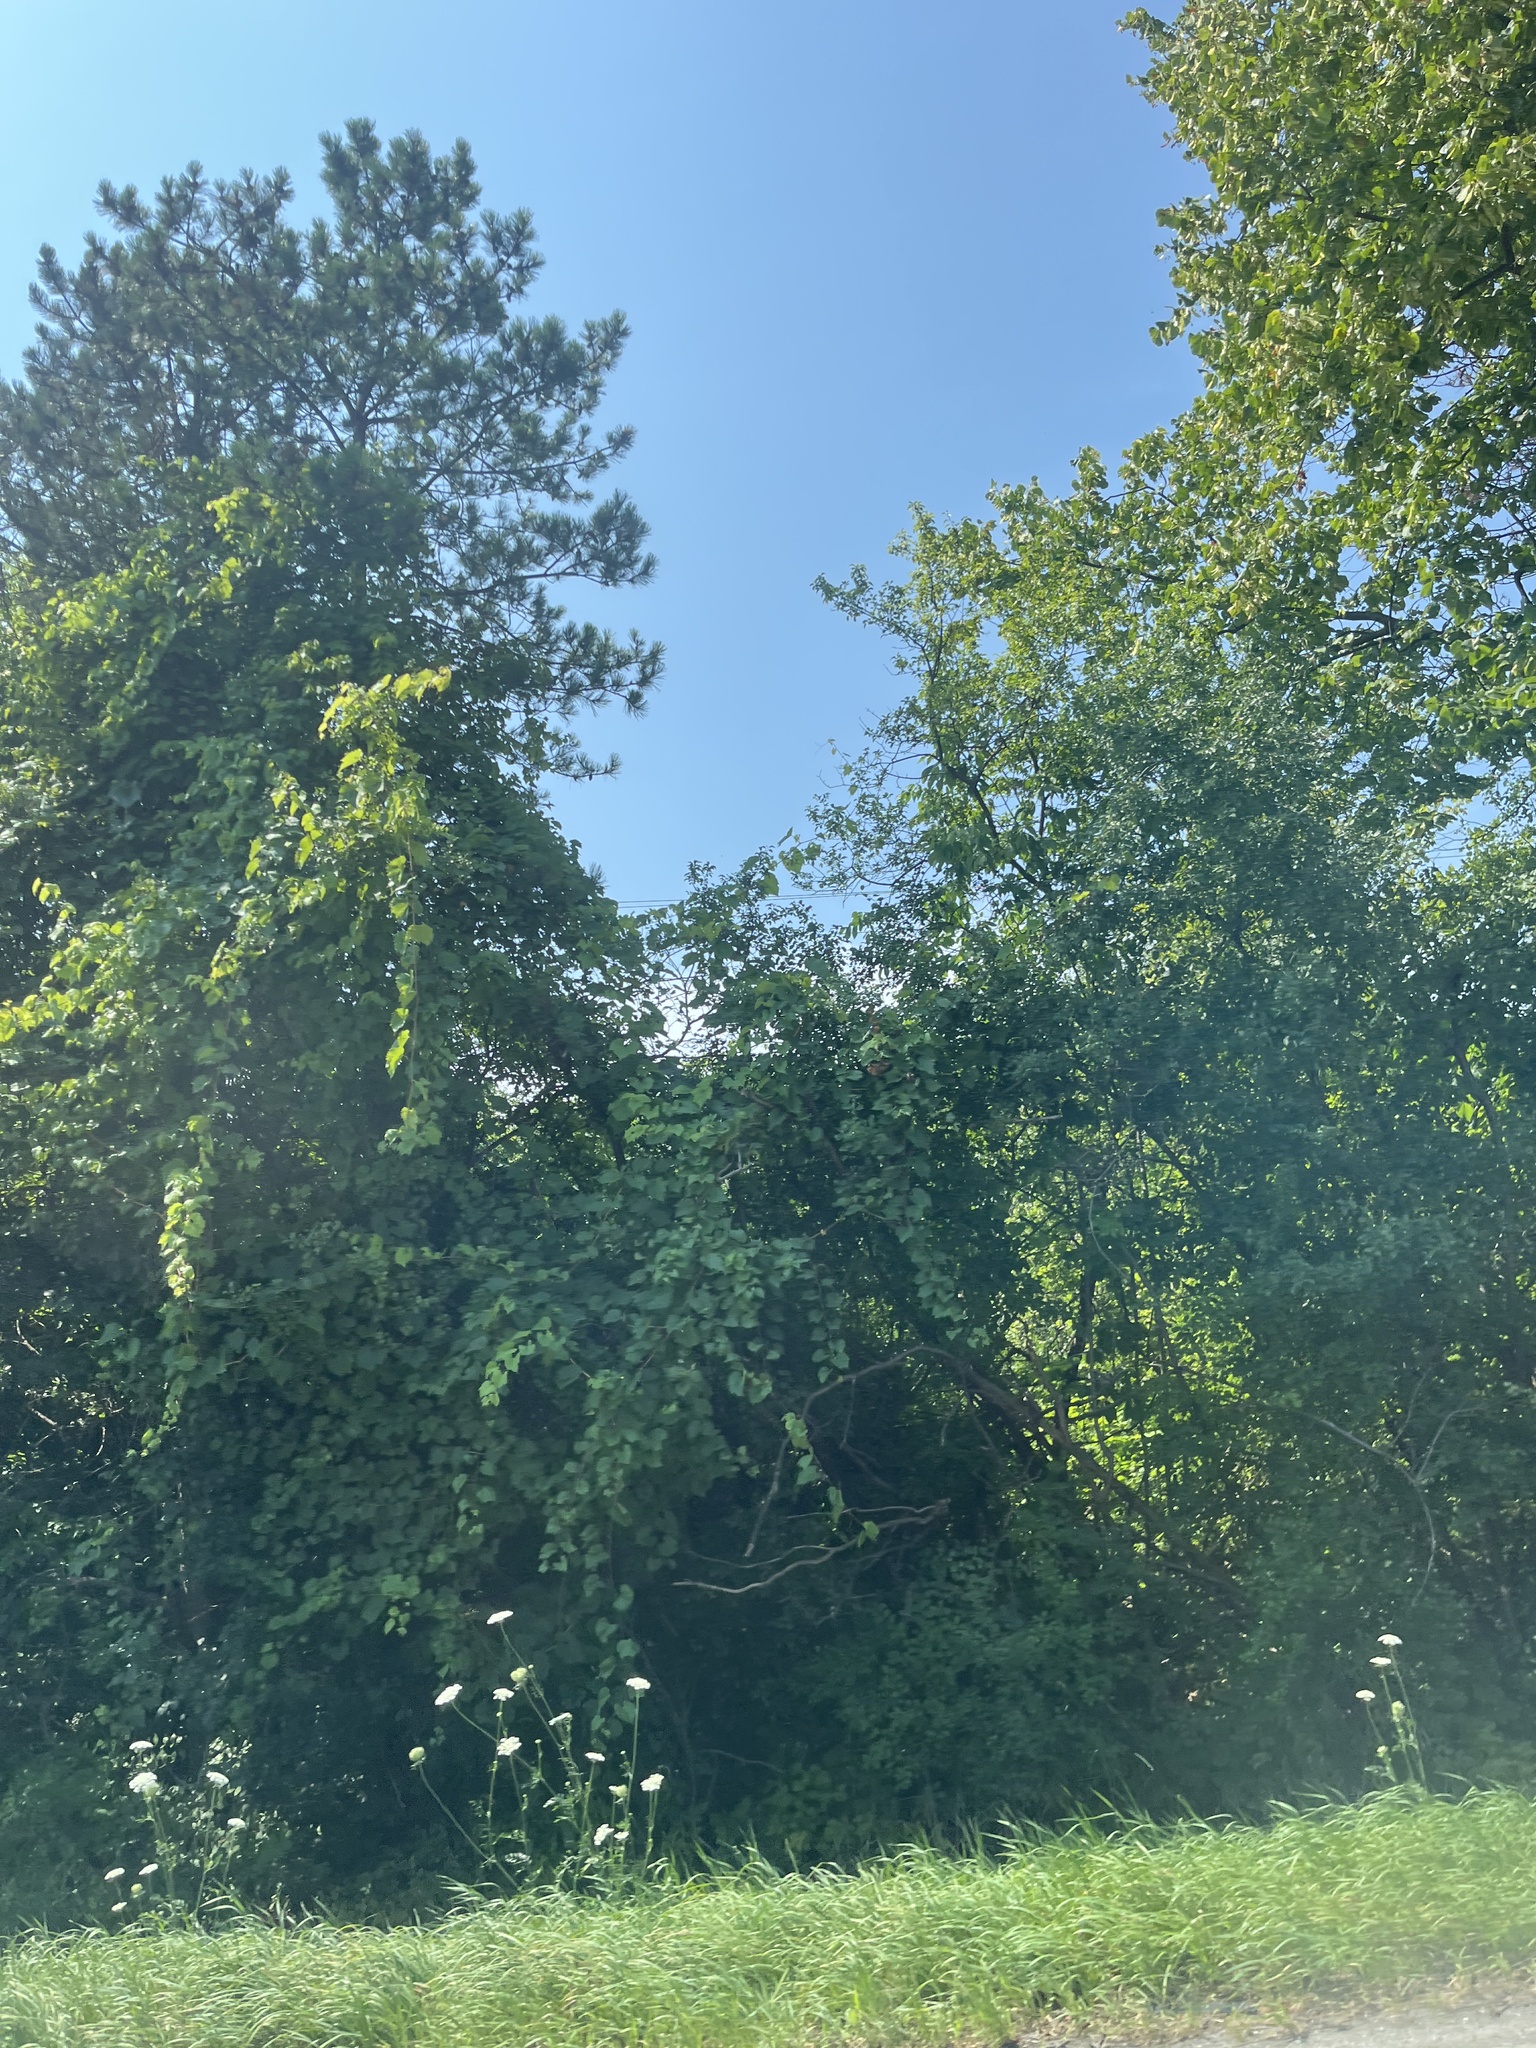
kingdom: Plantae
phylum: Tracheophyta
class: Pinopsida
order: Pinales
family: Pinaceae
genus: Pinus
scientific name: Pinus strobus
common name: Weymouth pine
